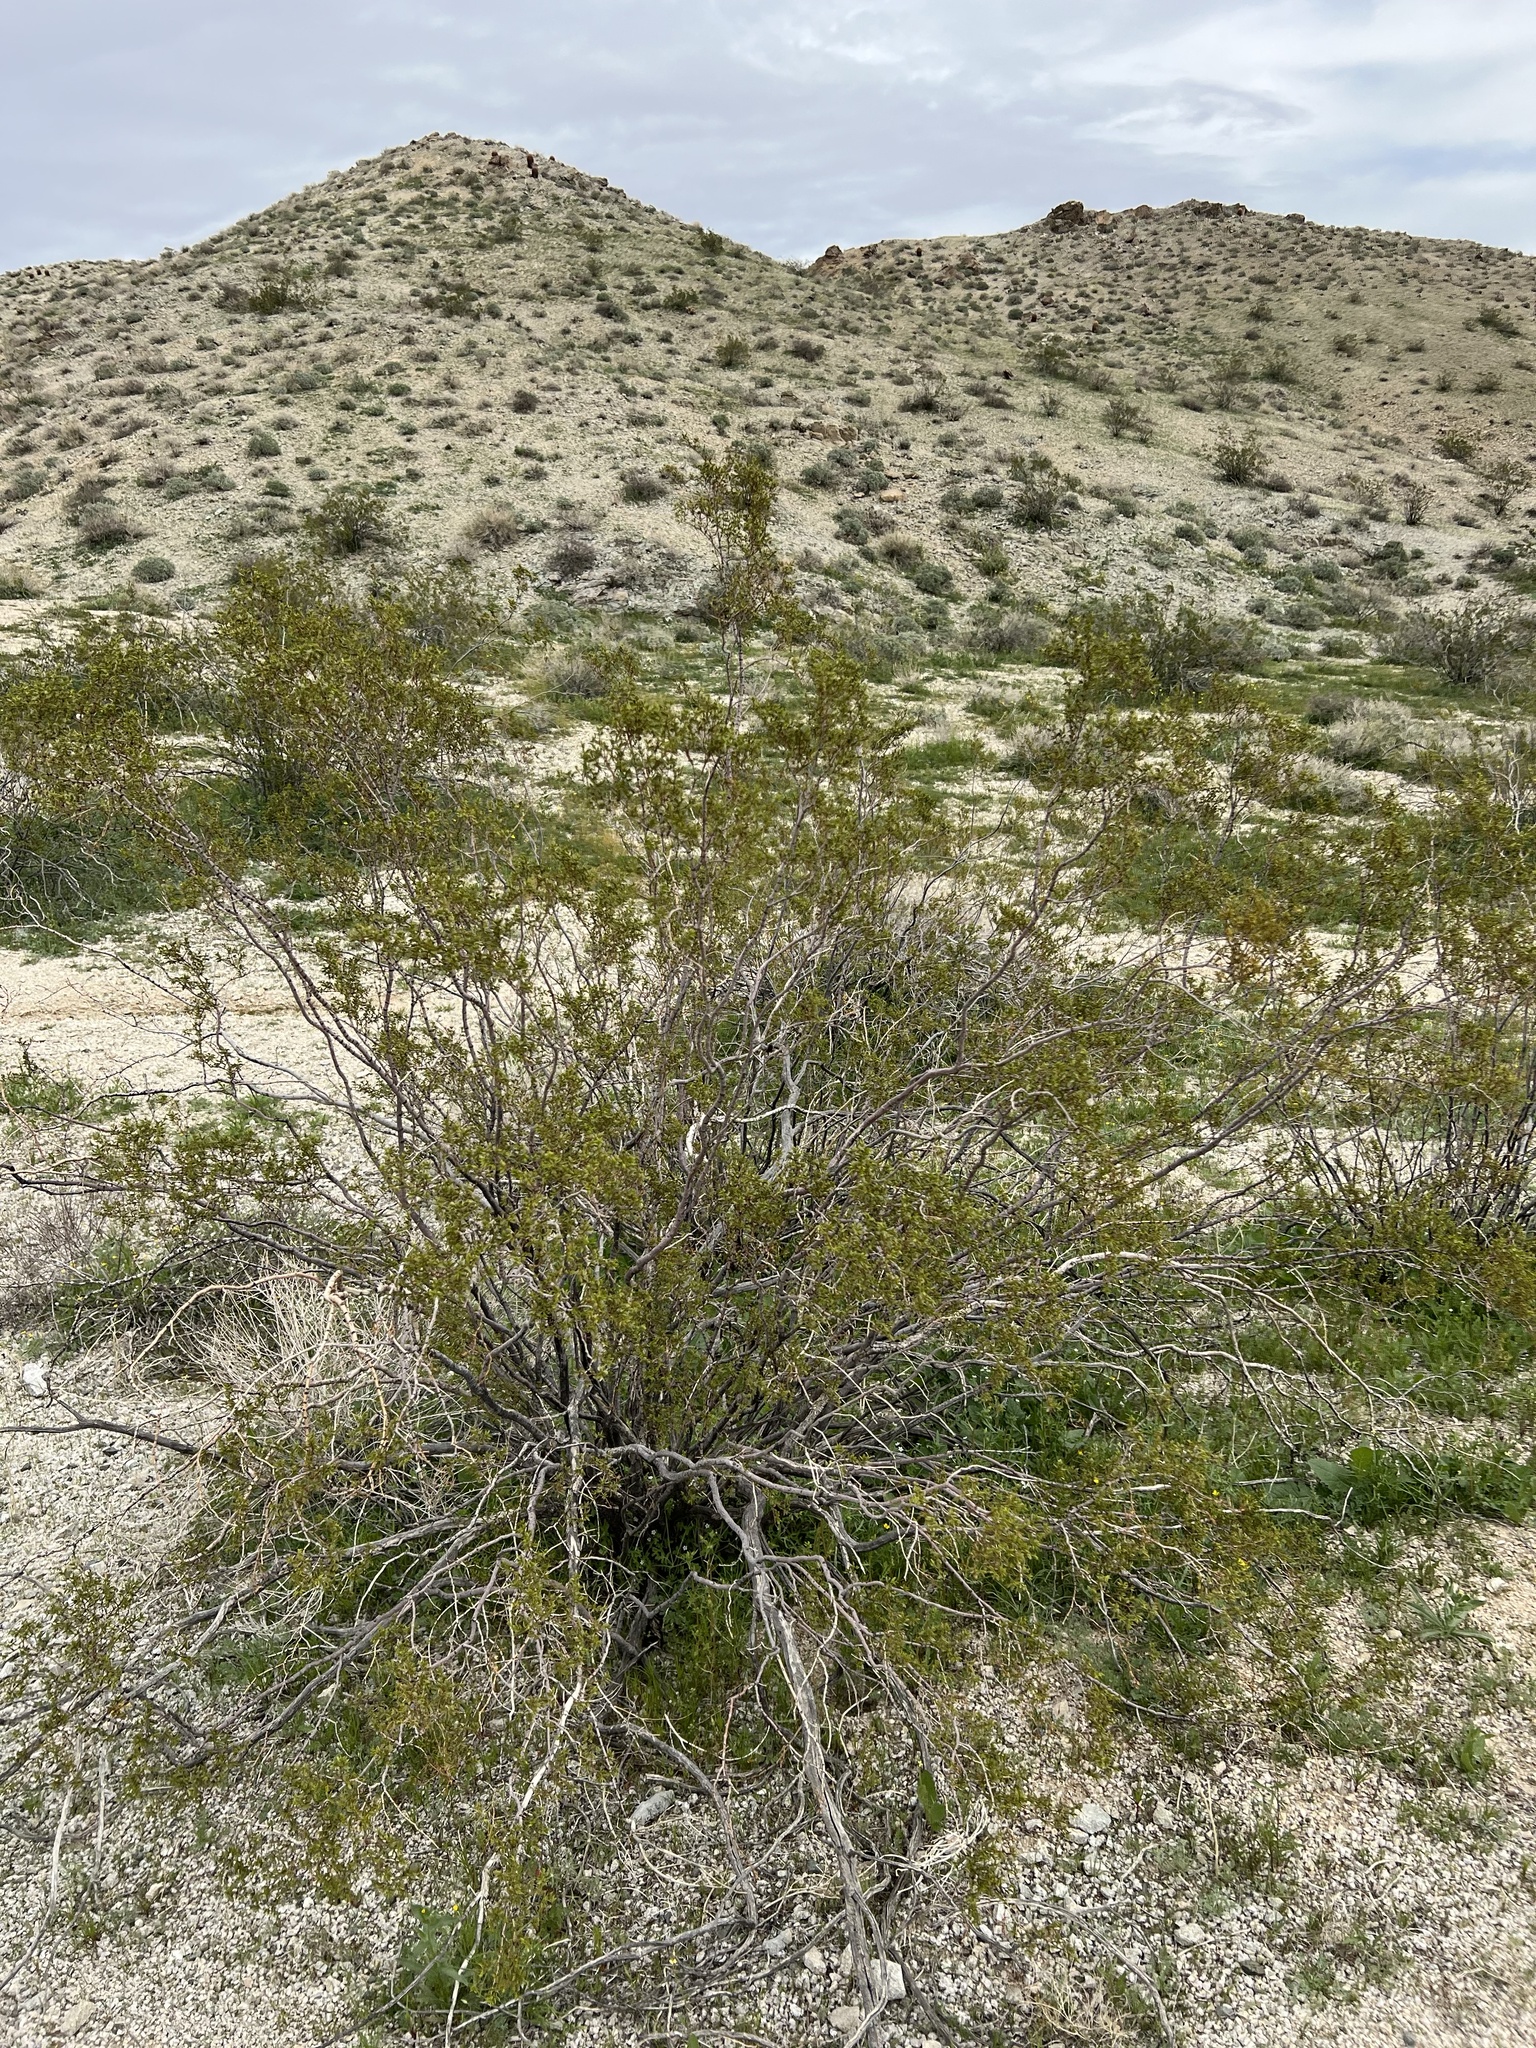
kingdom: Plantae
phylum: Tracheophyta
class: Magnoliopsida
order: Zygophyllales
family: Zygophyllaceae
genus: Larrea
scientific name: Larrea tridentata
